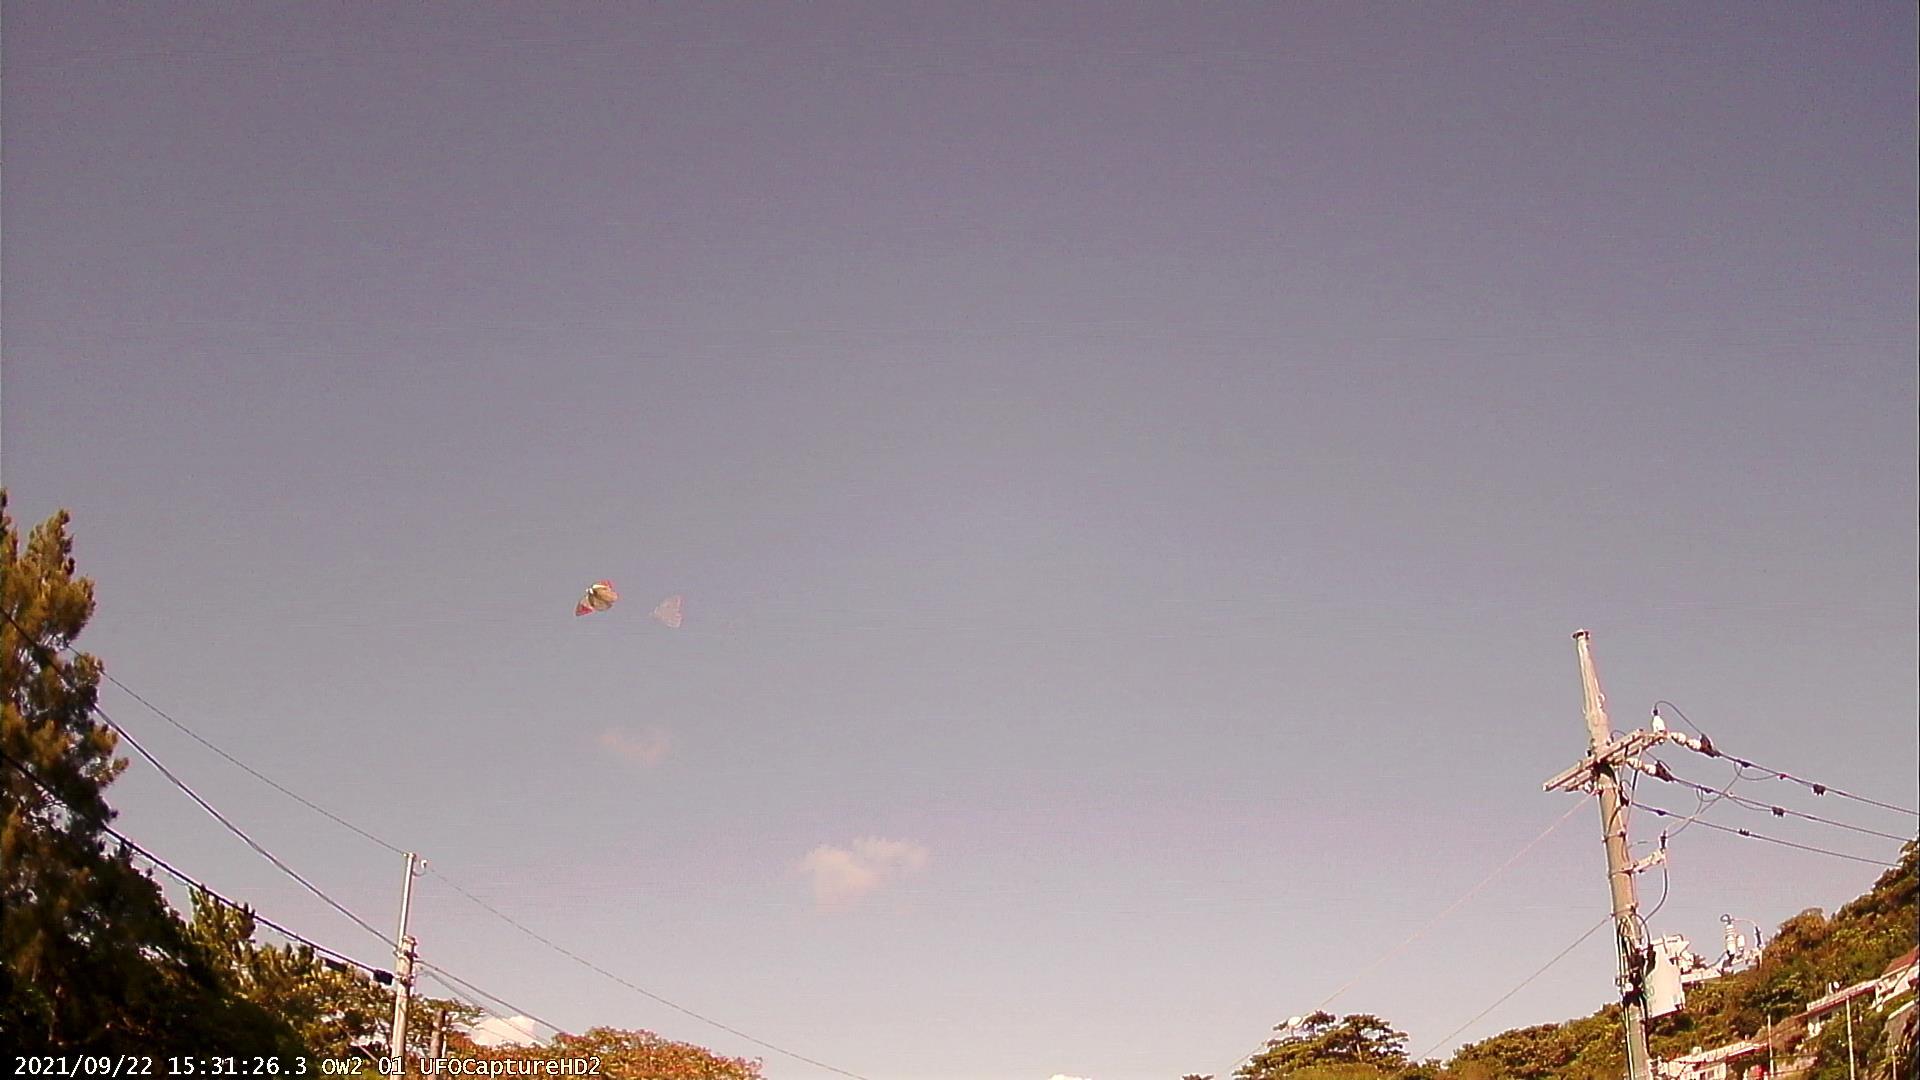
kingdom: Animalia
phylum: Arthropoda
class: Insecta
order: Lepidoptera
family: Pieridae
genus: Hebomoia
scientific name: Hebomoia glaucippe
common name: Great orange tip
